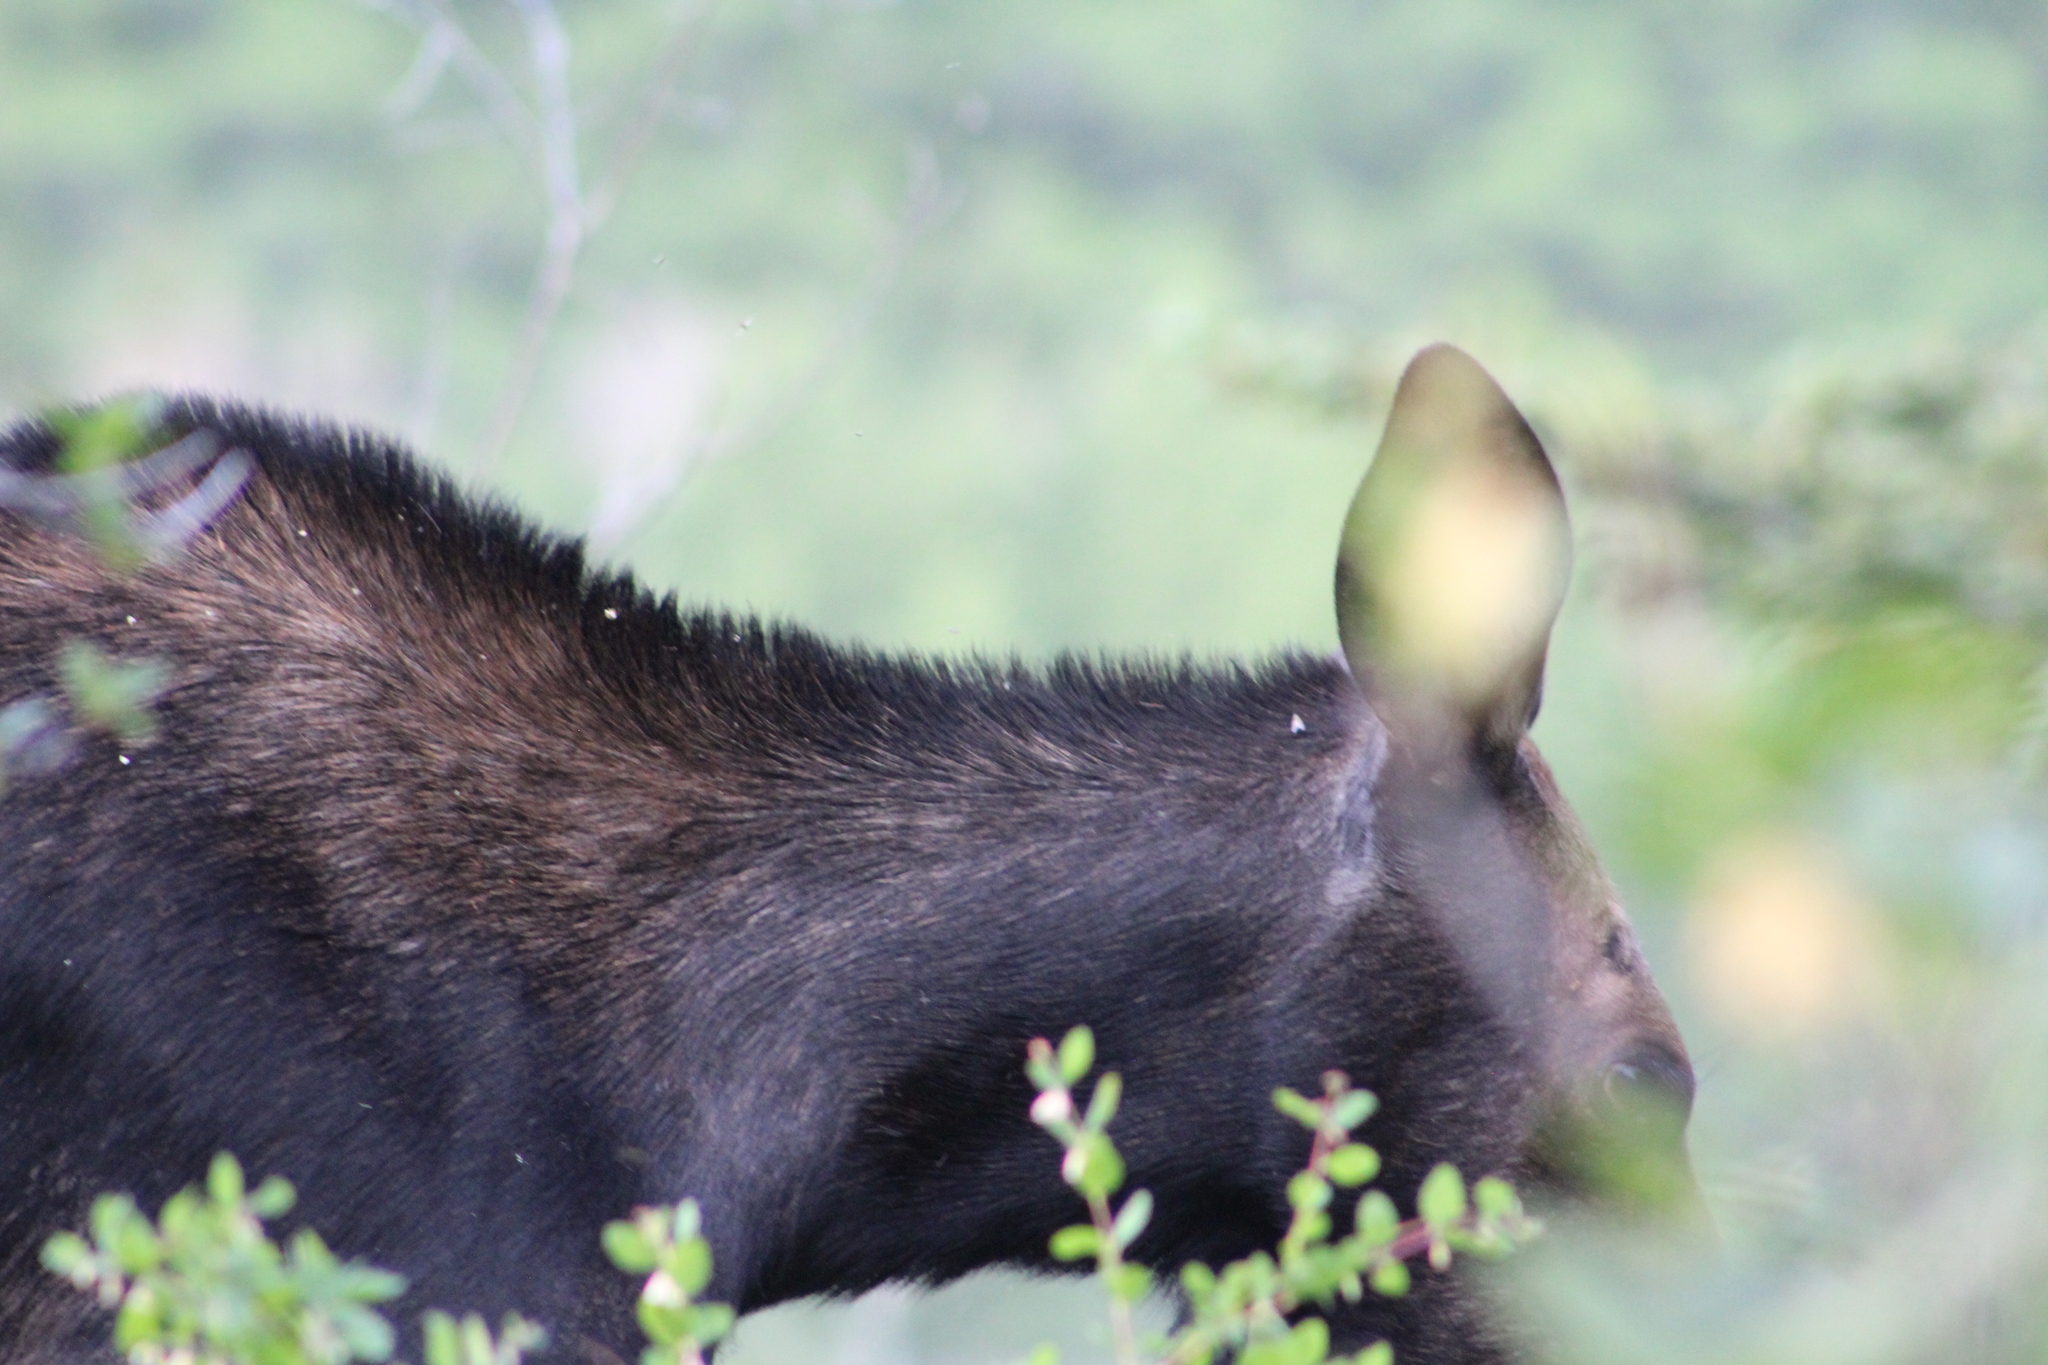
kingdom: Animalia
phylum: Chordata
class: Mammalia
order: Artiodactyla
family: Cervidae
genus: Alces
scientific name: Alces alces
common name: Moose
